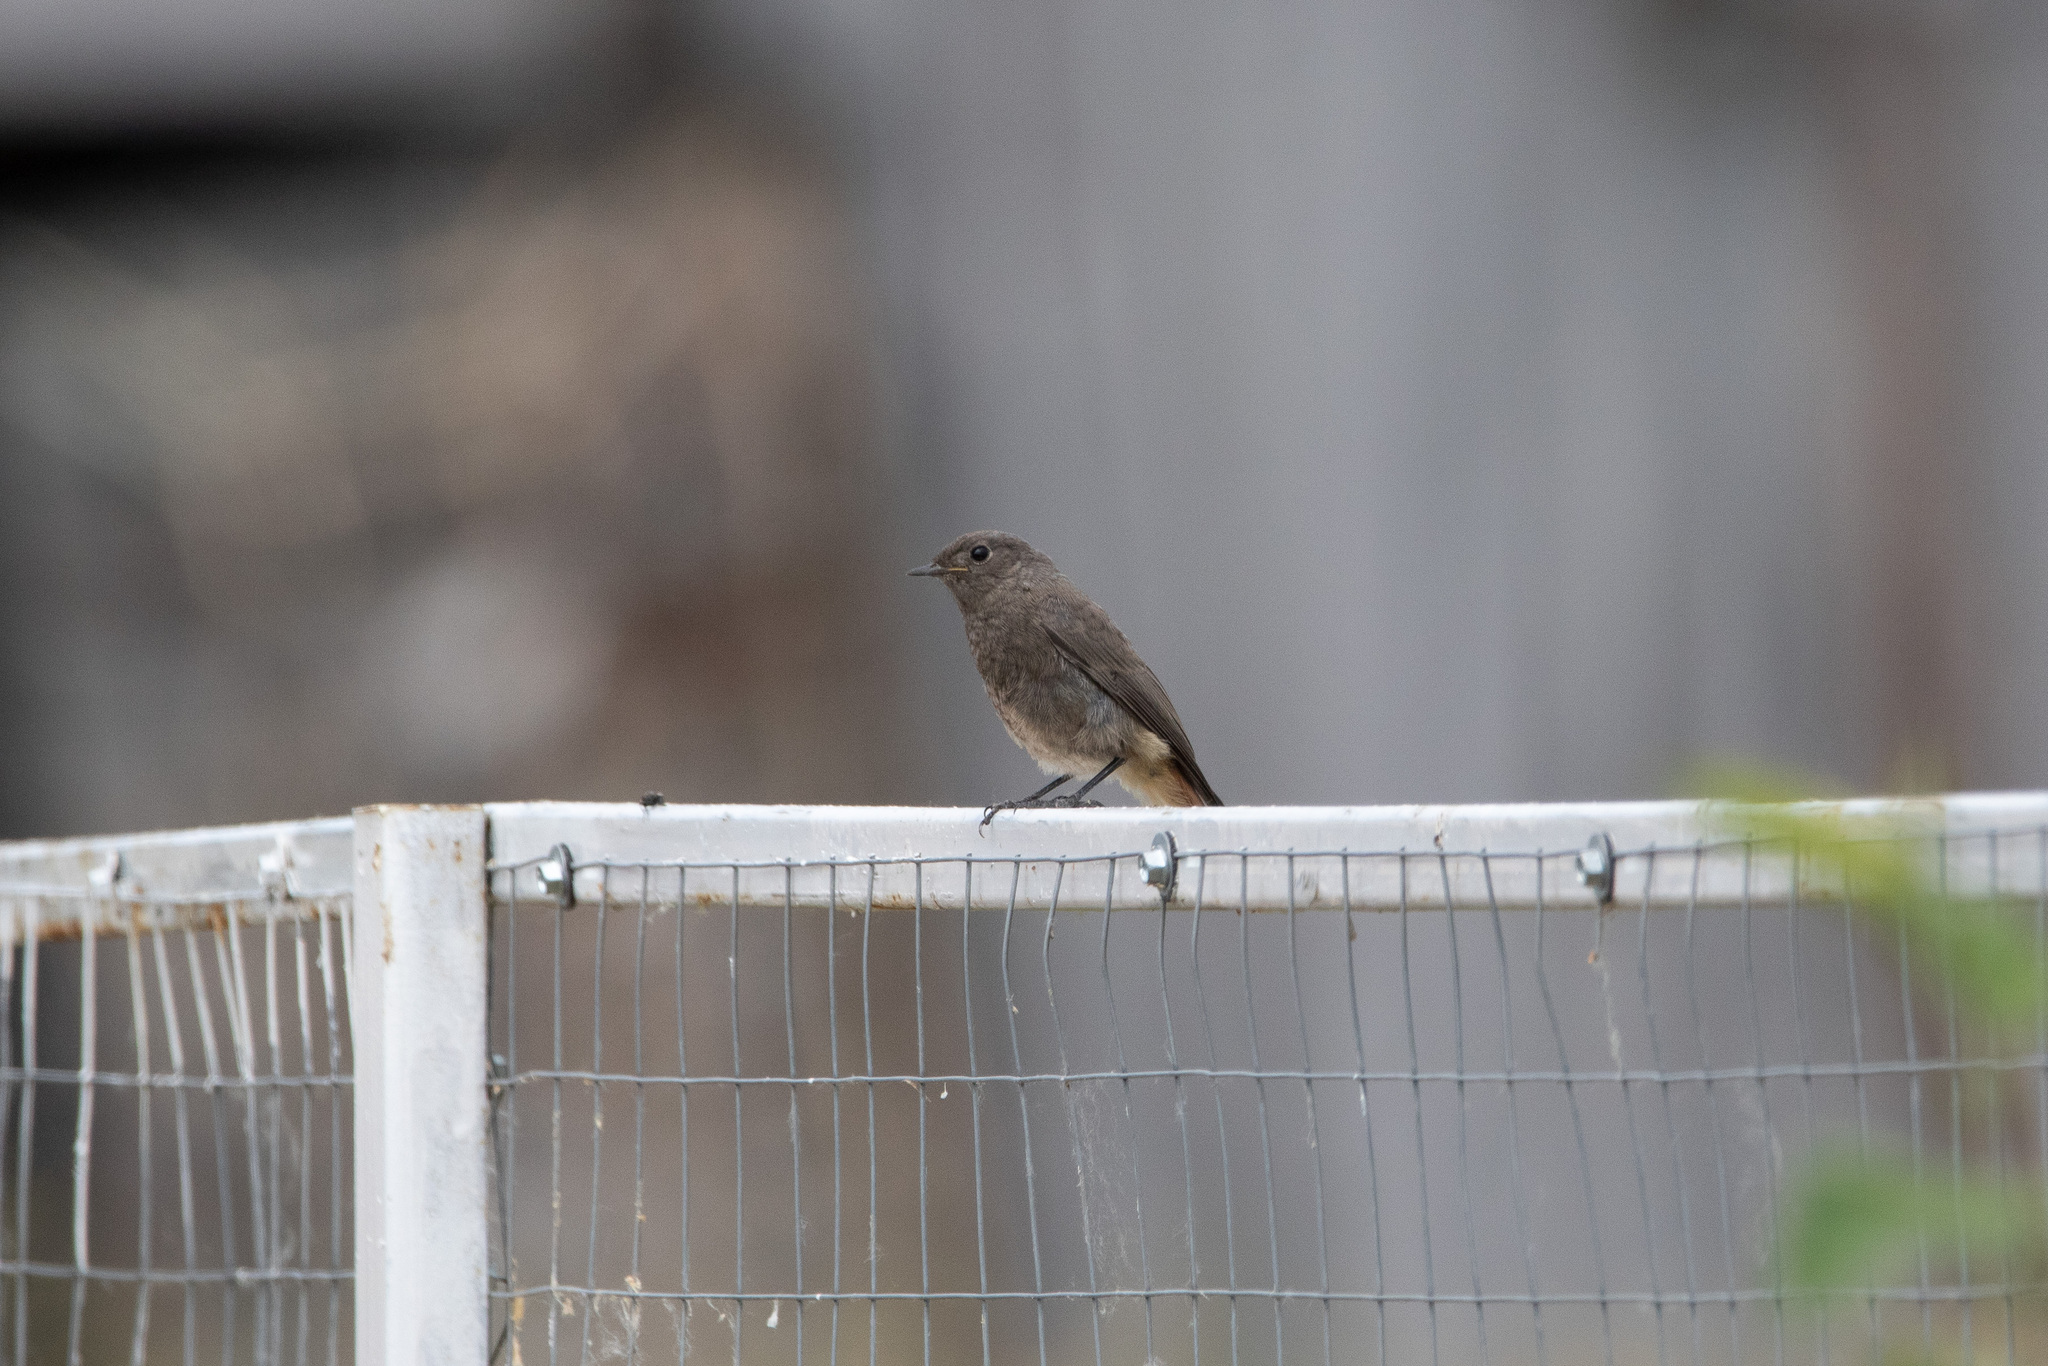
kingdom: Animalia
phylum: Chordata
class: Aves
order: Passeriformes
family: Muscicapidae
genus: Phoenicurus
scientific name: Phoenicurus ochruros
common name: Black redstart
